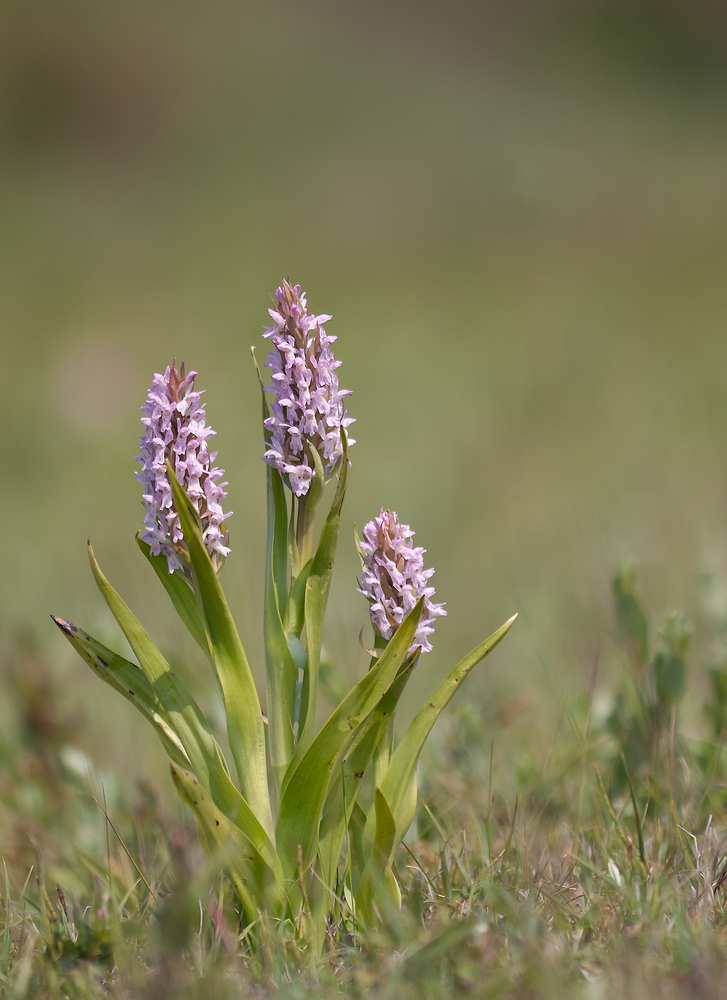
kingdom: Plantae
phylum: Tracheophyta
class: Liliopsida
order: Asparagales
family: Orchidaceae
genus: Dactylorhiza
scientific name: Dactylorhiza incarnata
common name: Early marsh-orchid
